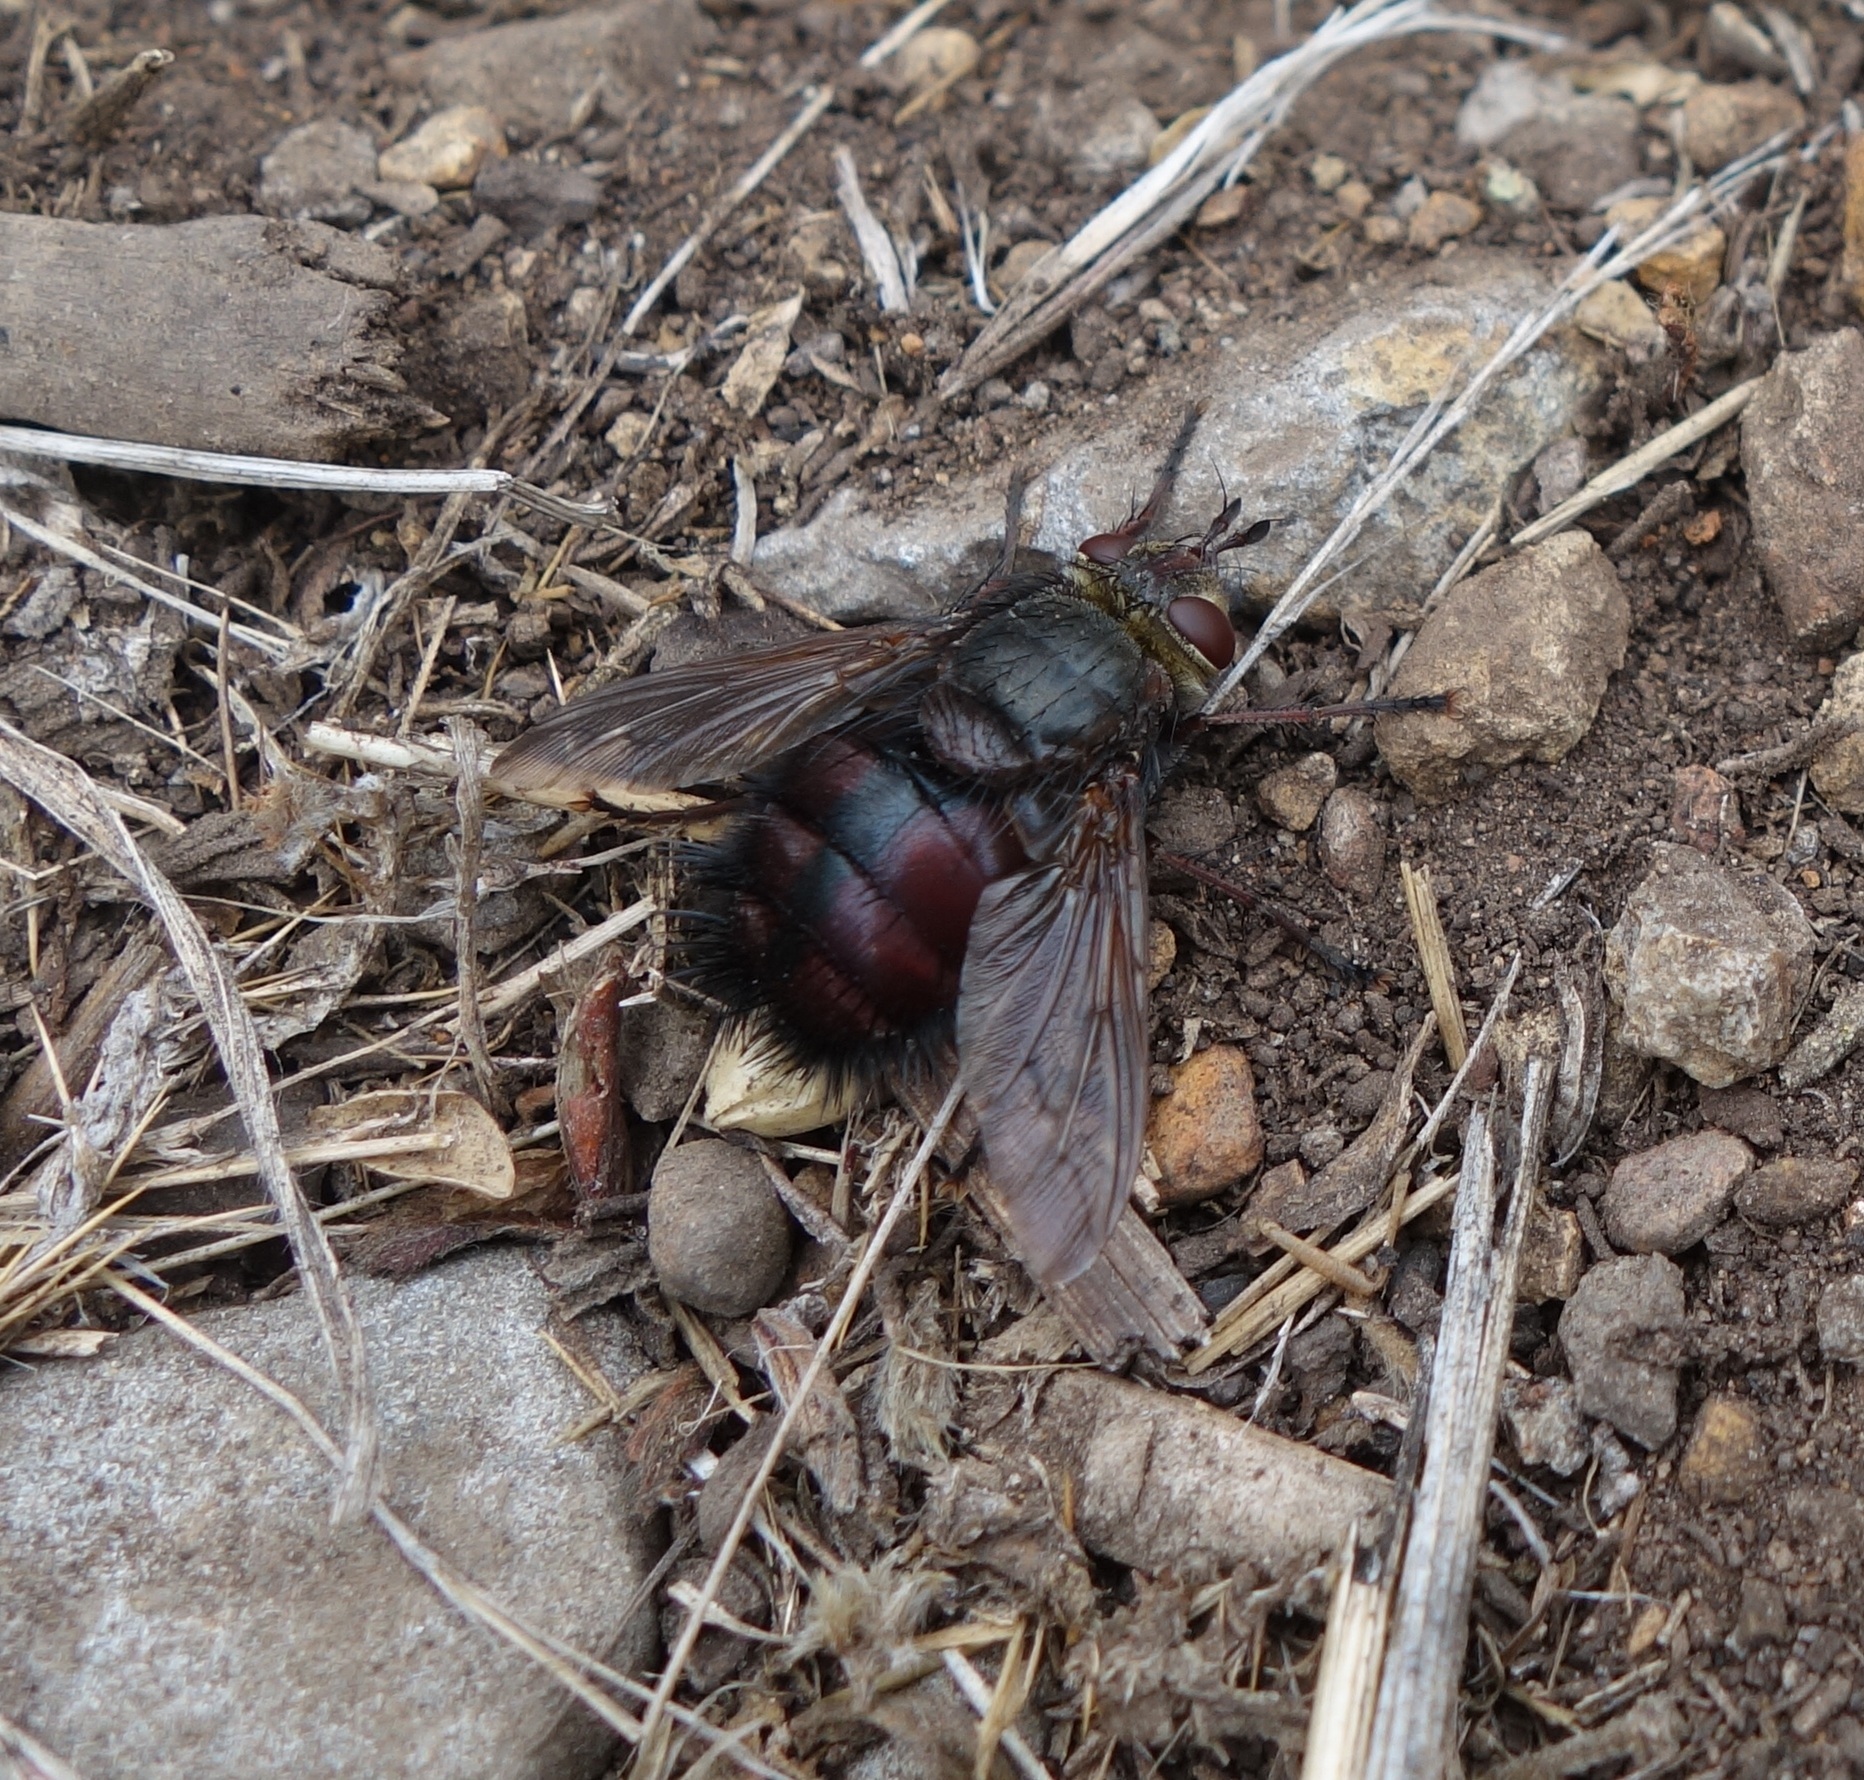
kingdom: Animalia
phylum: Arthropoda
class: Insecta
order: Diptera
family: Tachinidae
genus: Tachina
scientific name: Tachina canariensis
